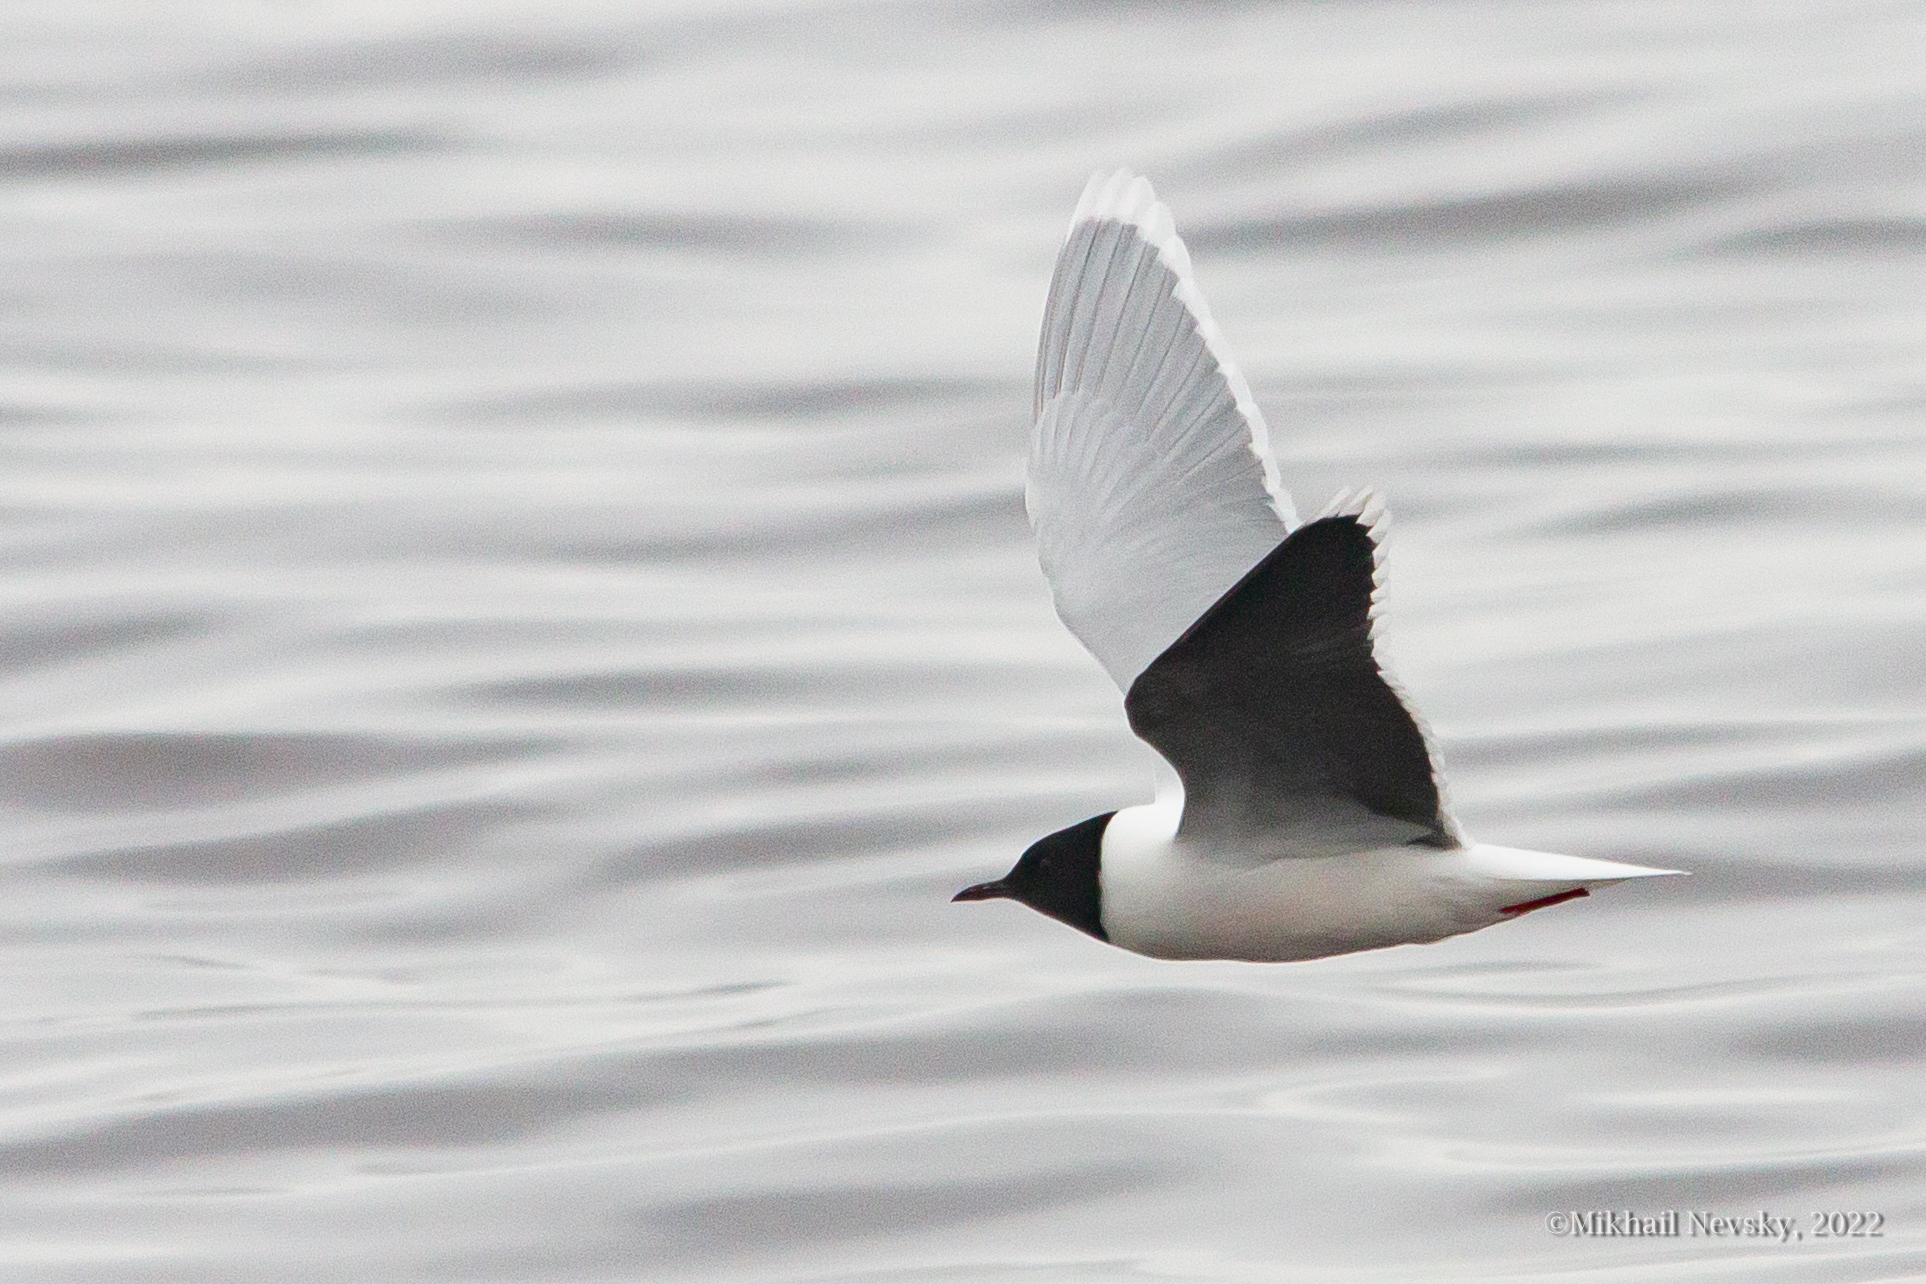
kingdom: Animalia
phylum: Chordata
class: Aves
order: Charadriiformes
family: Laridae
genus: Hydrocoloeus
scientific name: Hydrocoloeus minutus
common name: Little gull
